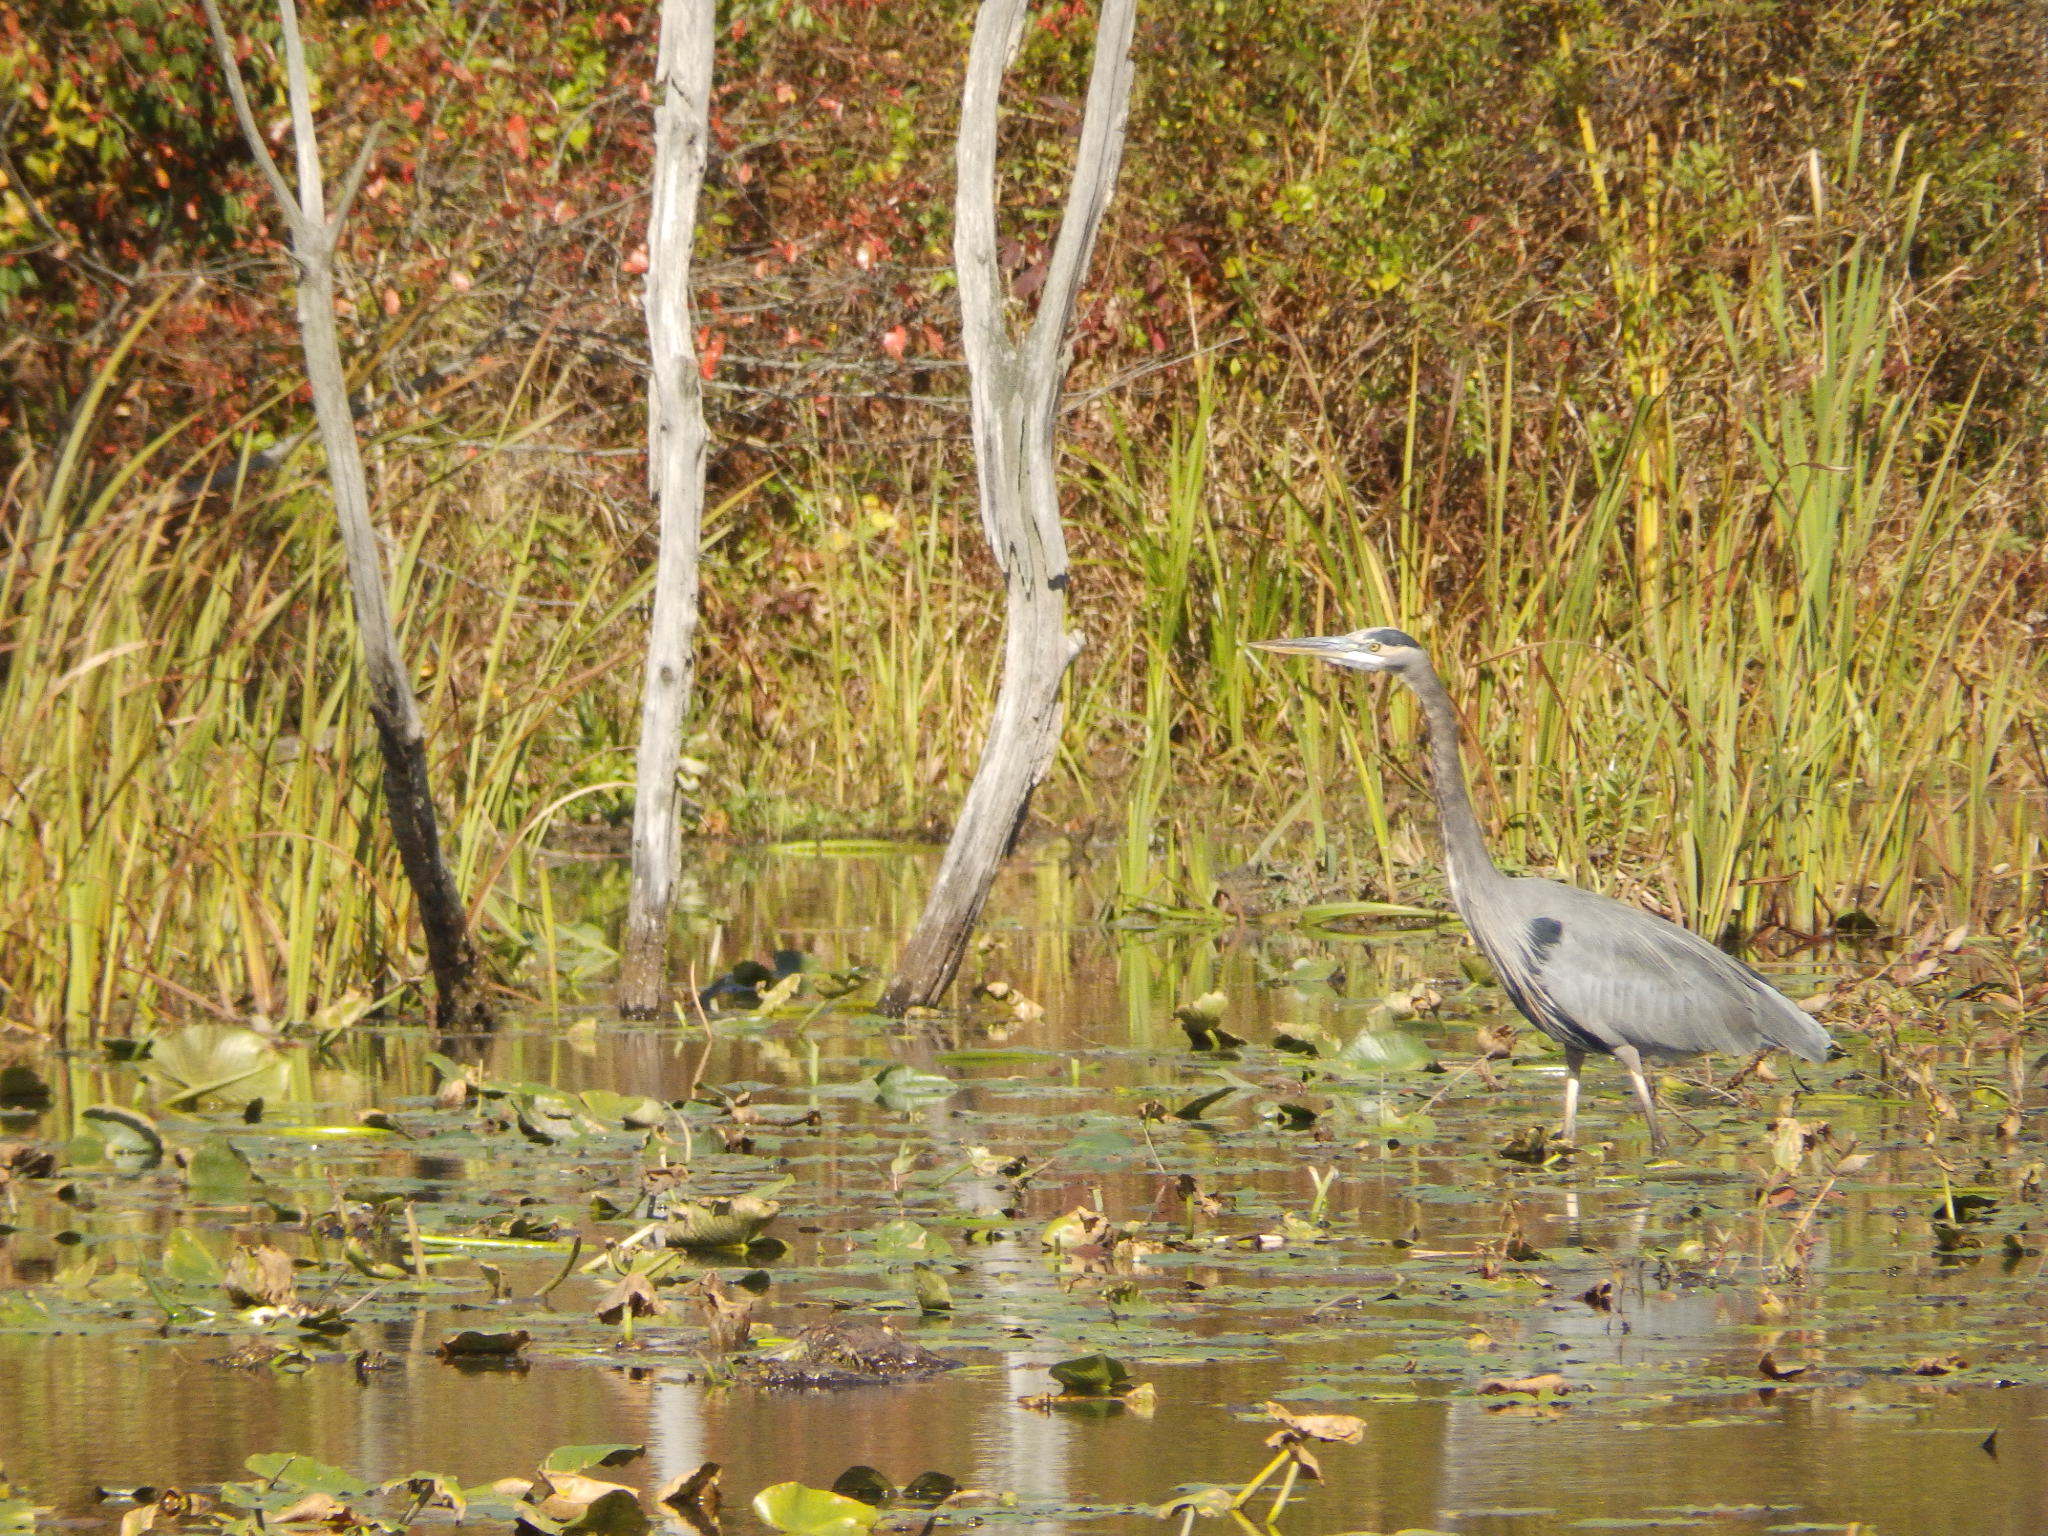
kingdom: Animalia
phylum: Chordata
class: Aves
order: Pelecaniformes
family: Ardeidae
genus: Ardea
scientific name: Ardea herodias
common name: Great blue heron
